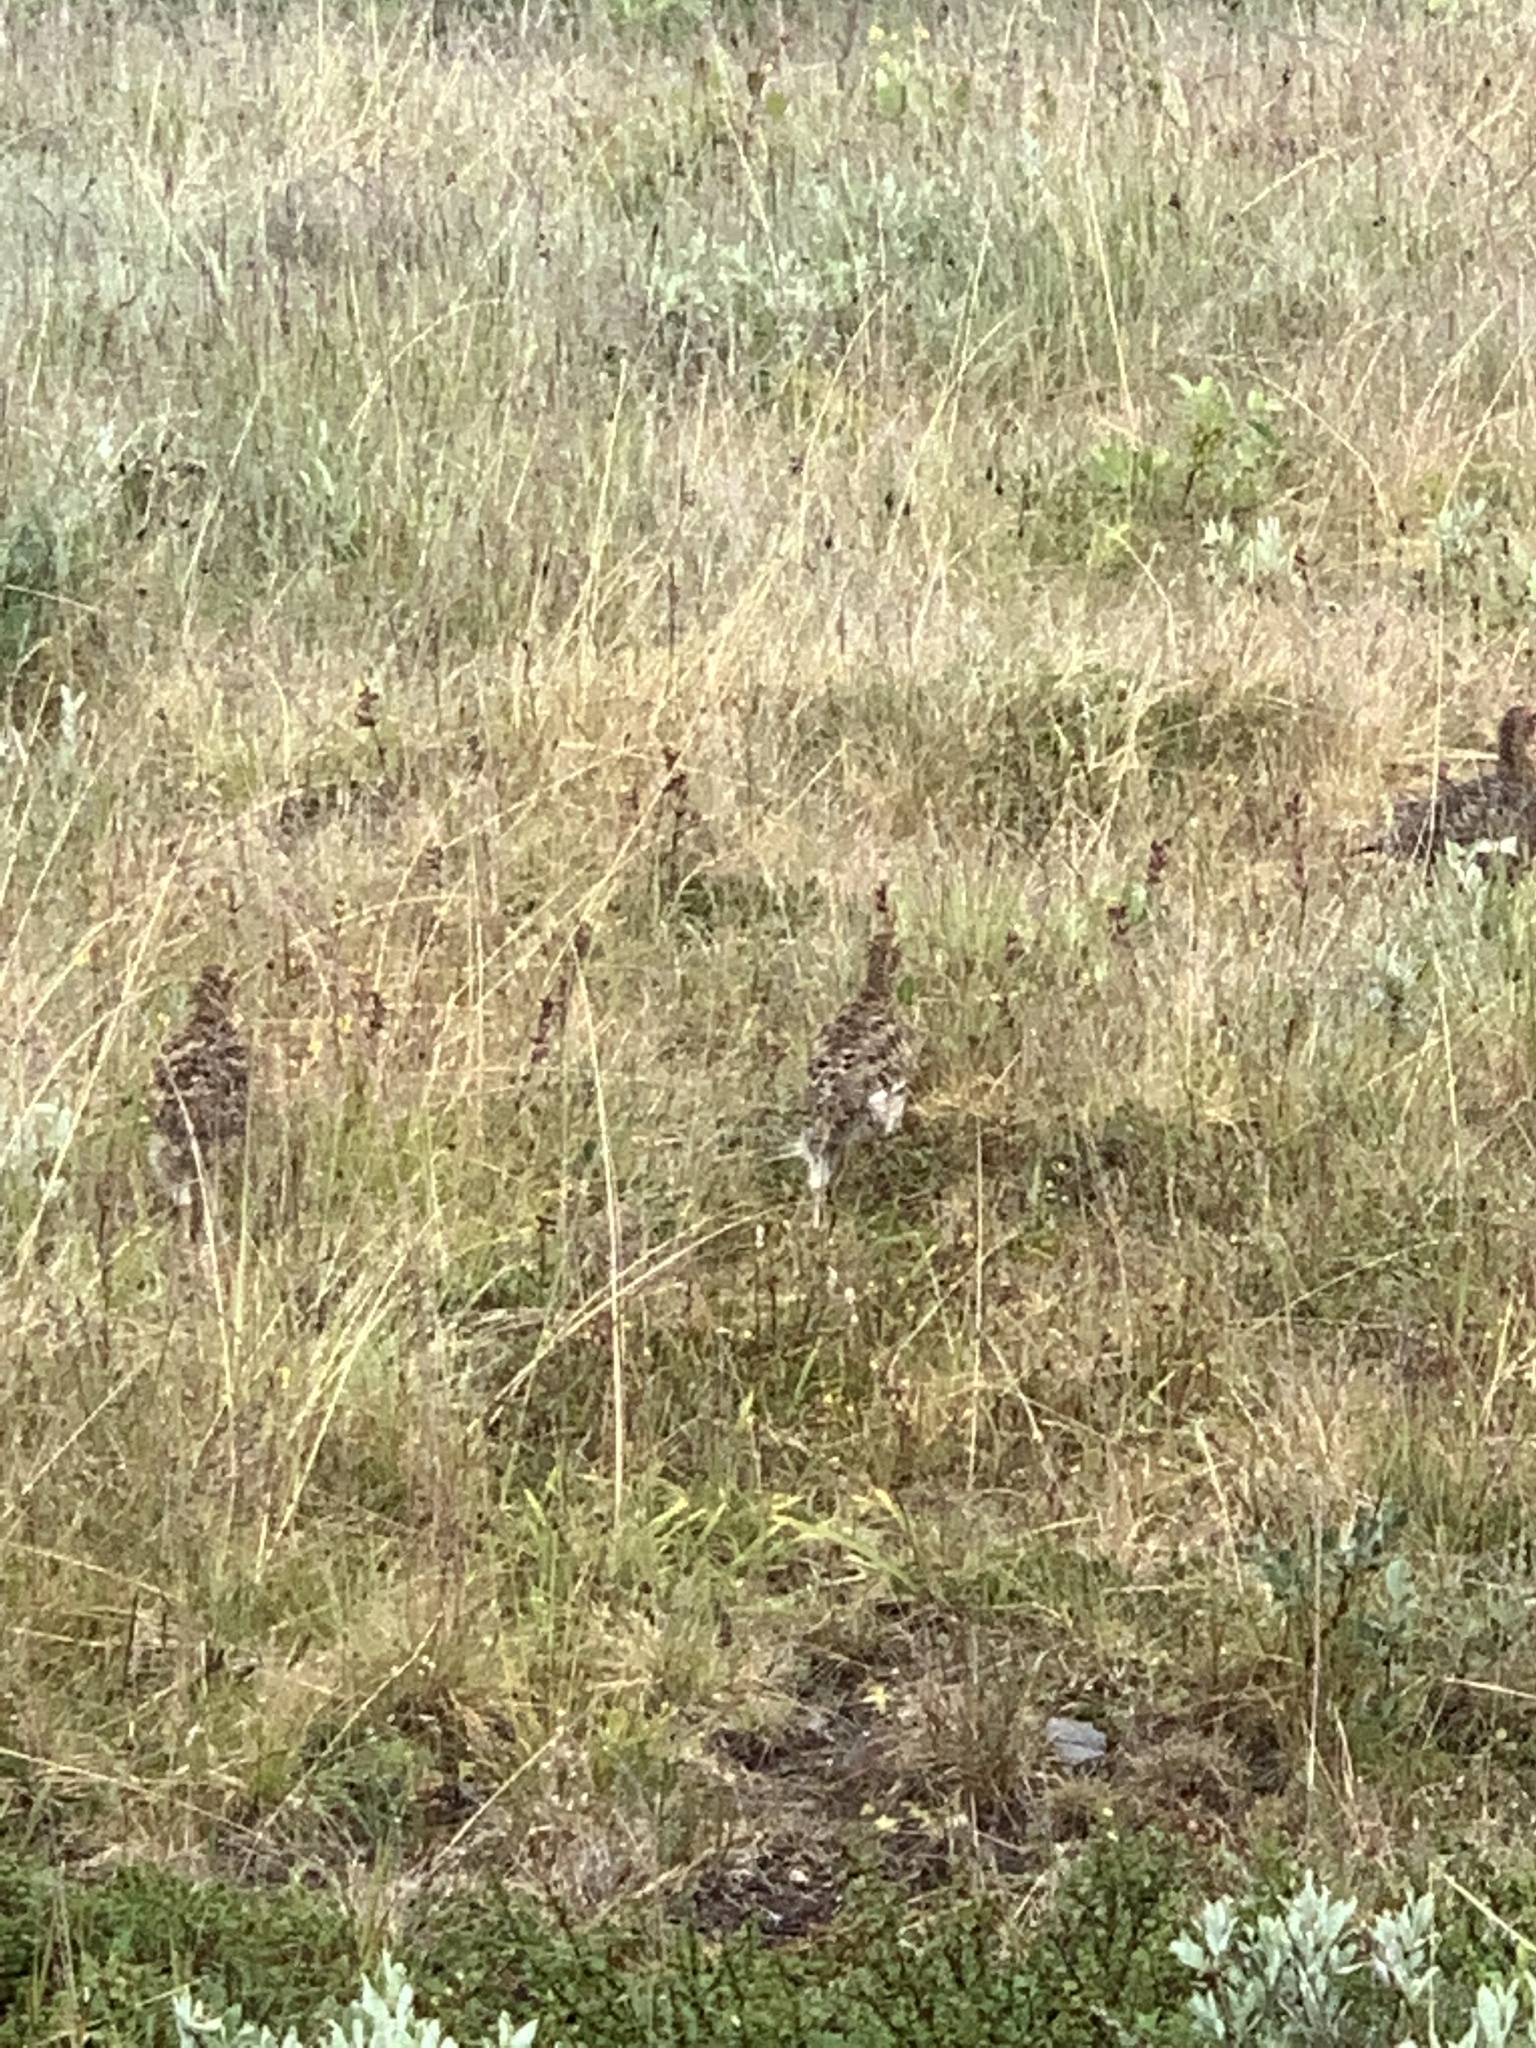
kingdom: Animalia
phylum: Chordata
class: Aves
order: Galliformes
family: Phasianidae
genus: Lagopus
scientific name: Lagopus lagopus
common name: Willow ptarmigan
